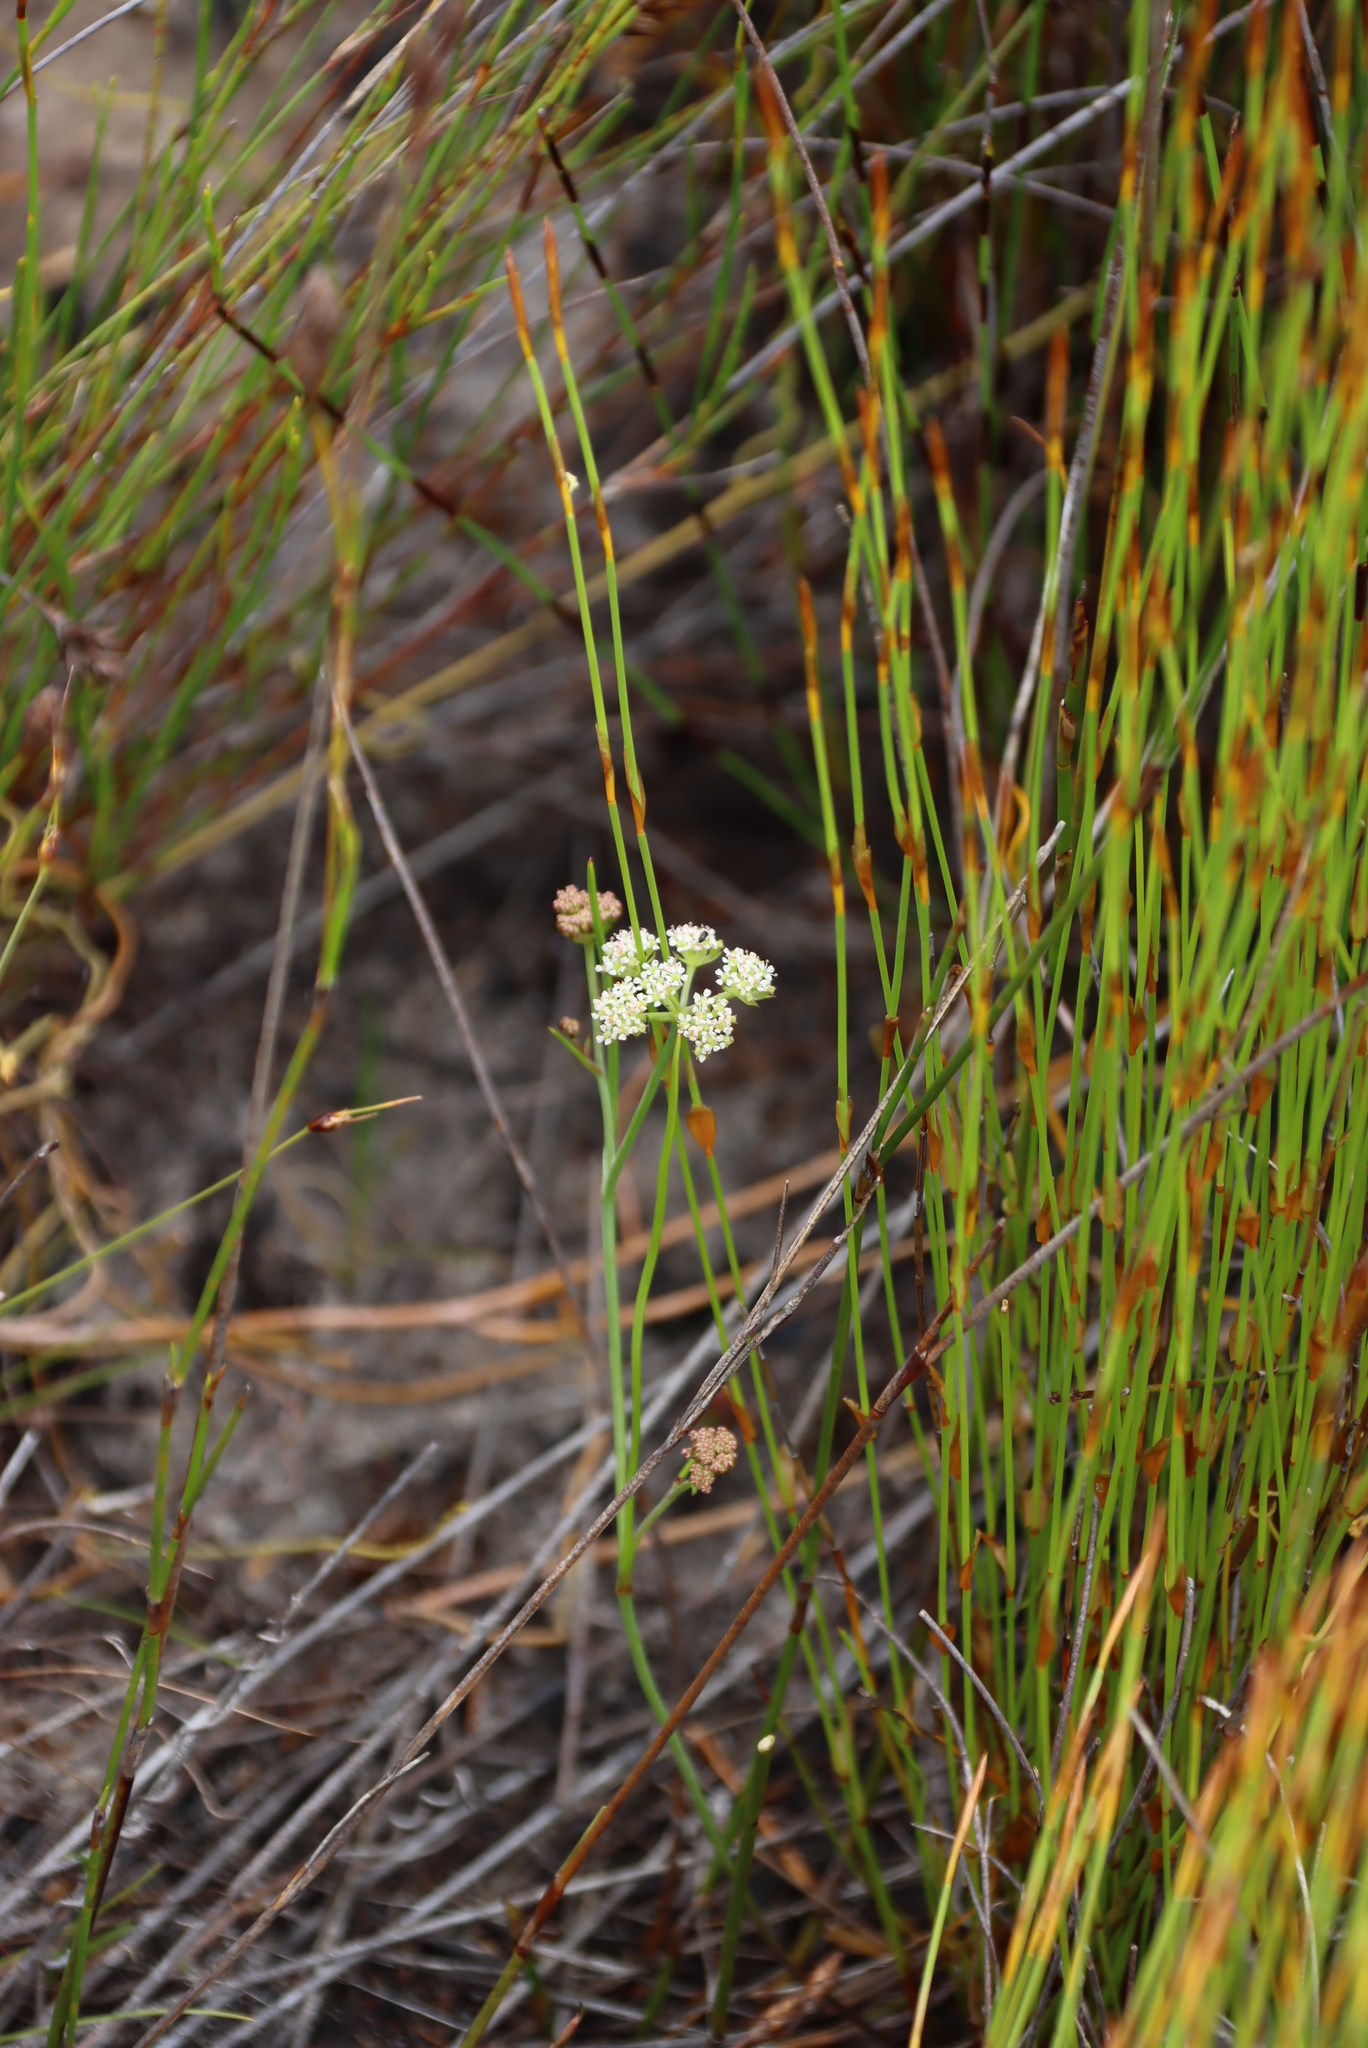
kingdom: Plantae
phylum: Tracheophyta
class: Magnoliopsida
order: Apiales
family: Apiaceae
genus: Itasina
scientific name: Itasina filifolia
